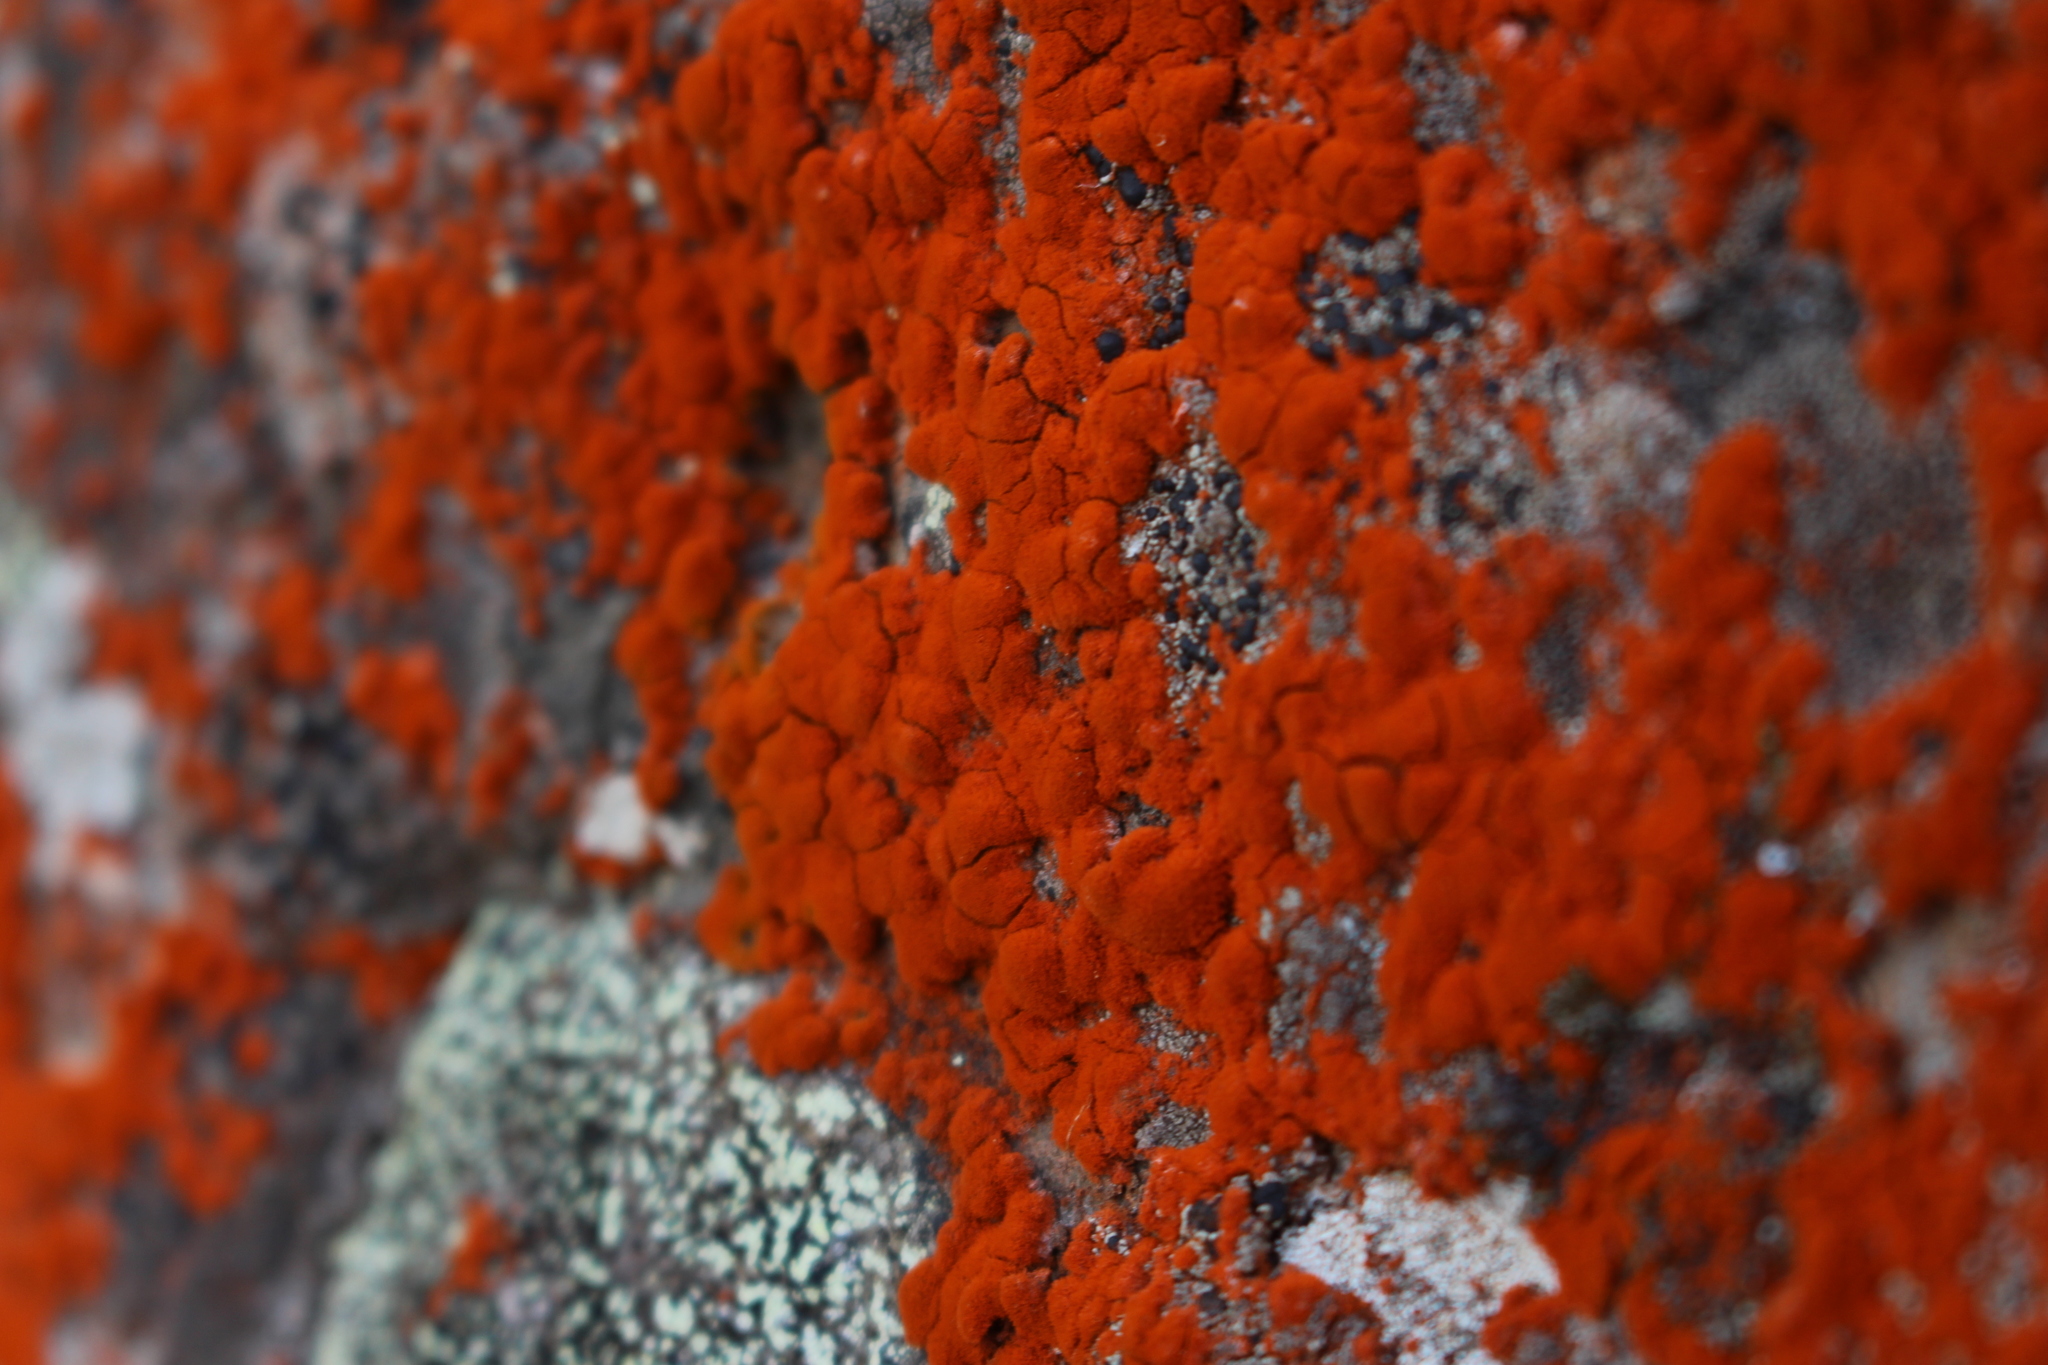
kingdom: Plantae
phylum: Chlorophyta
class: Ulvophyceae
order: Trentepohliales
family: Trentepohliaceae
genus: Trentepohlia
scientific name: Trentepohlia
